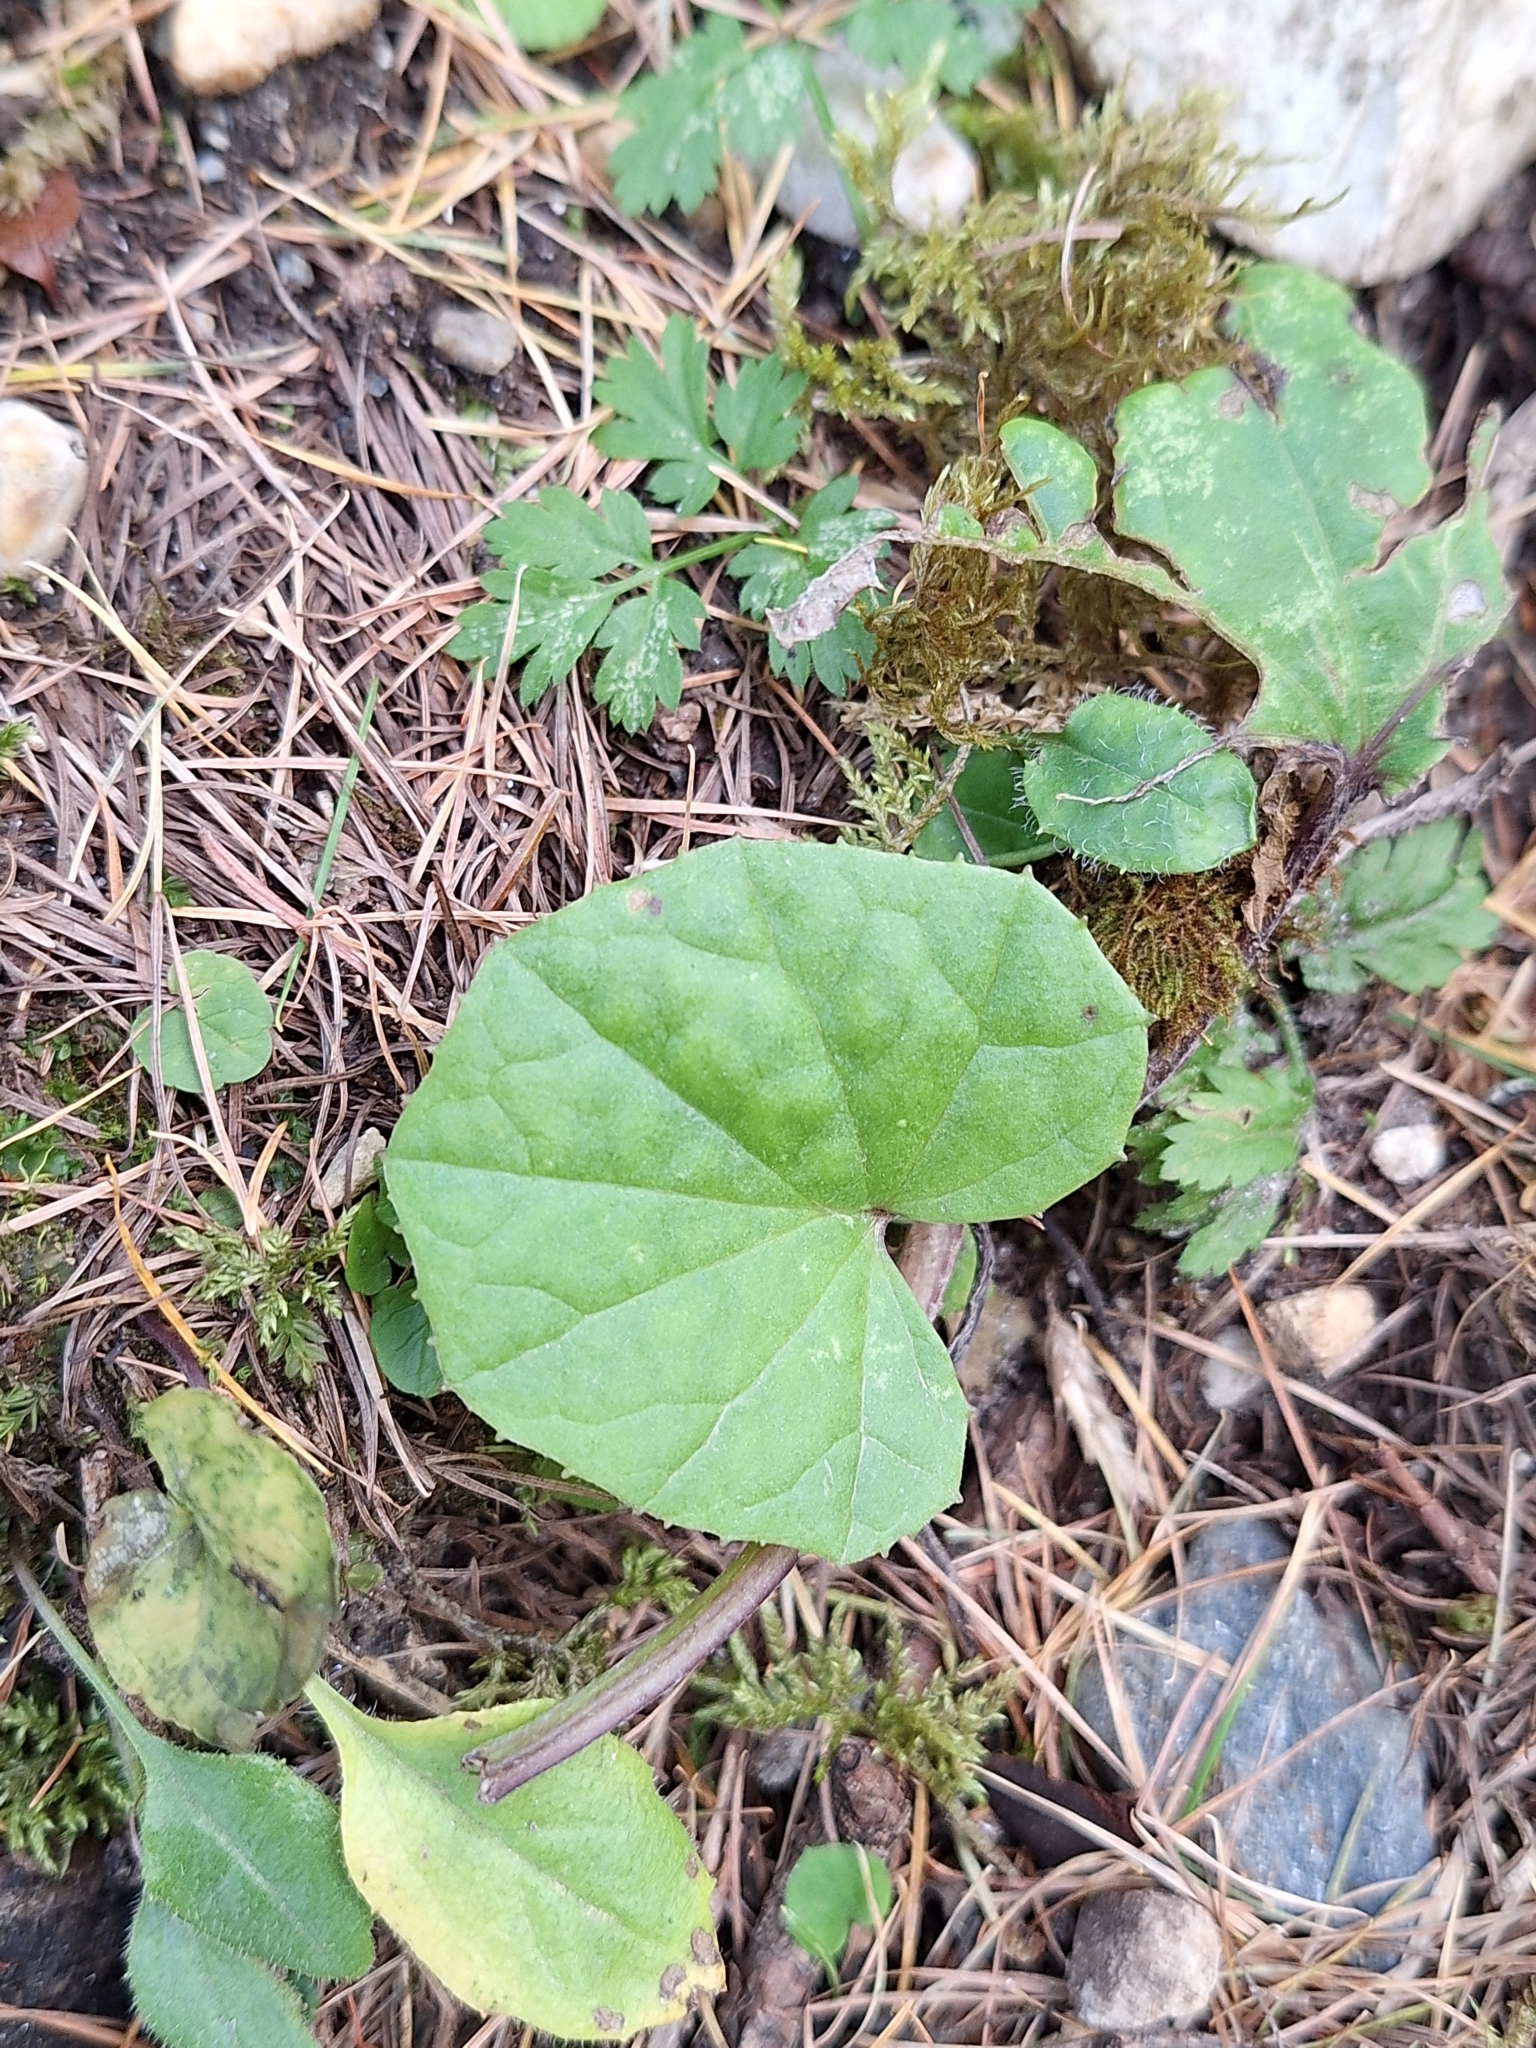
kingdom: Plantae
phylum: Tracheophyta
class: Magnoliopsida
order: Asterales
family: Asteraceae
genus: Tussilago
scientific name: Tussilago farfara
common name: Coltsfoot
